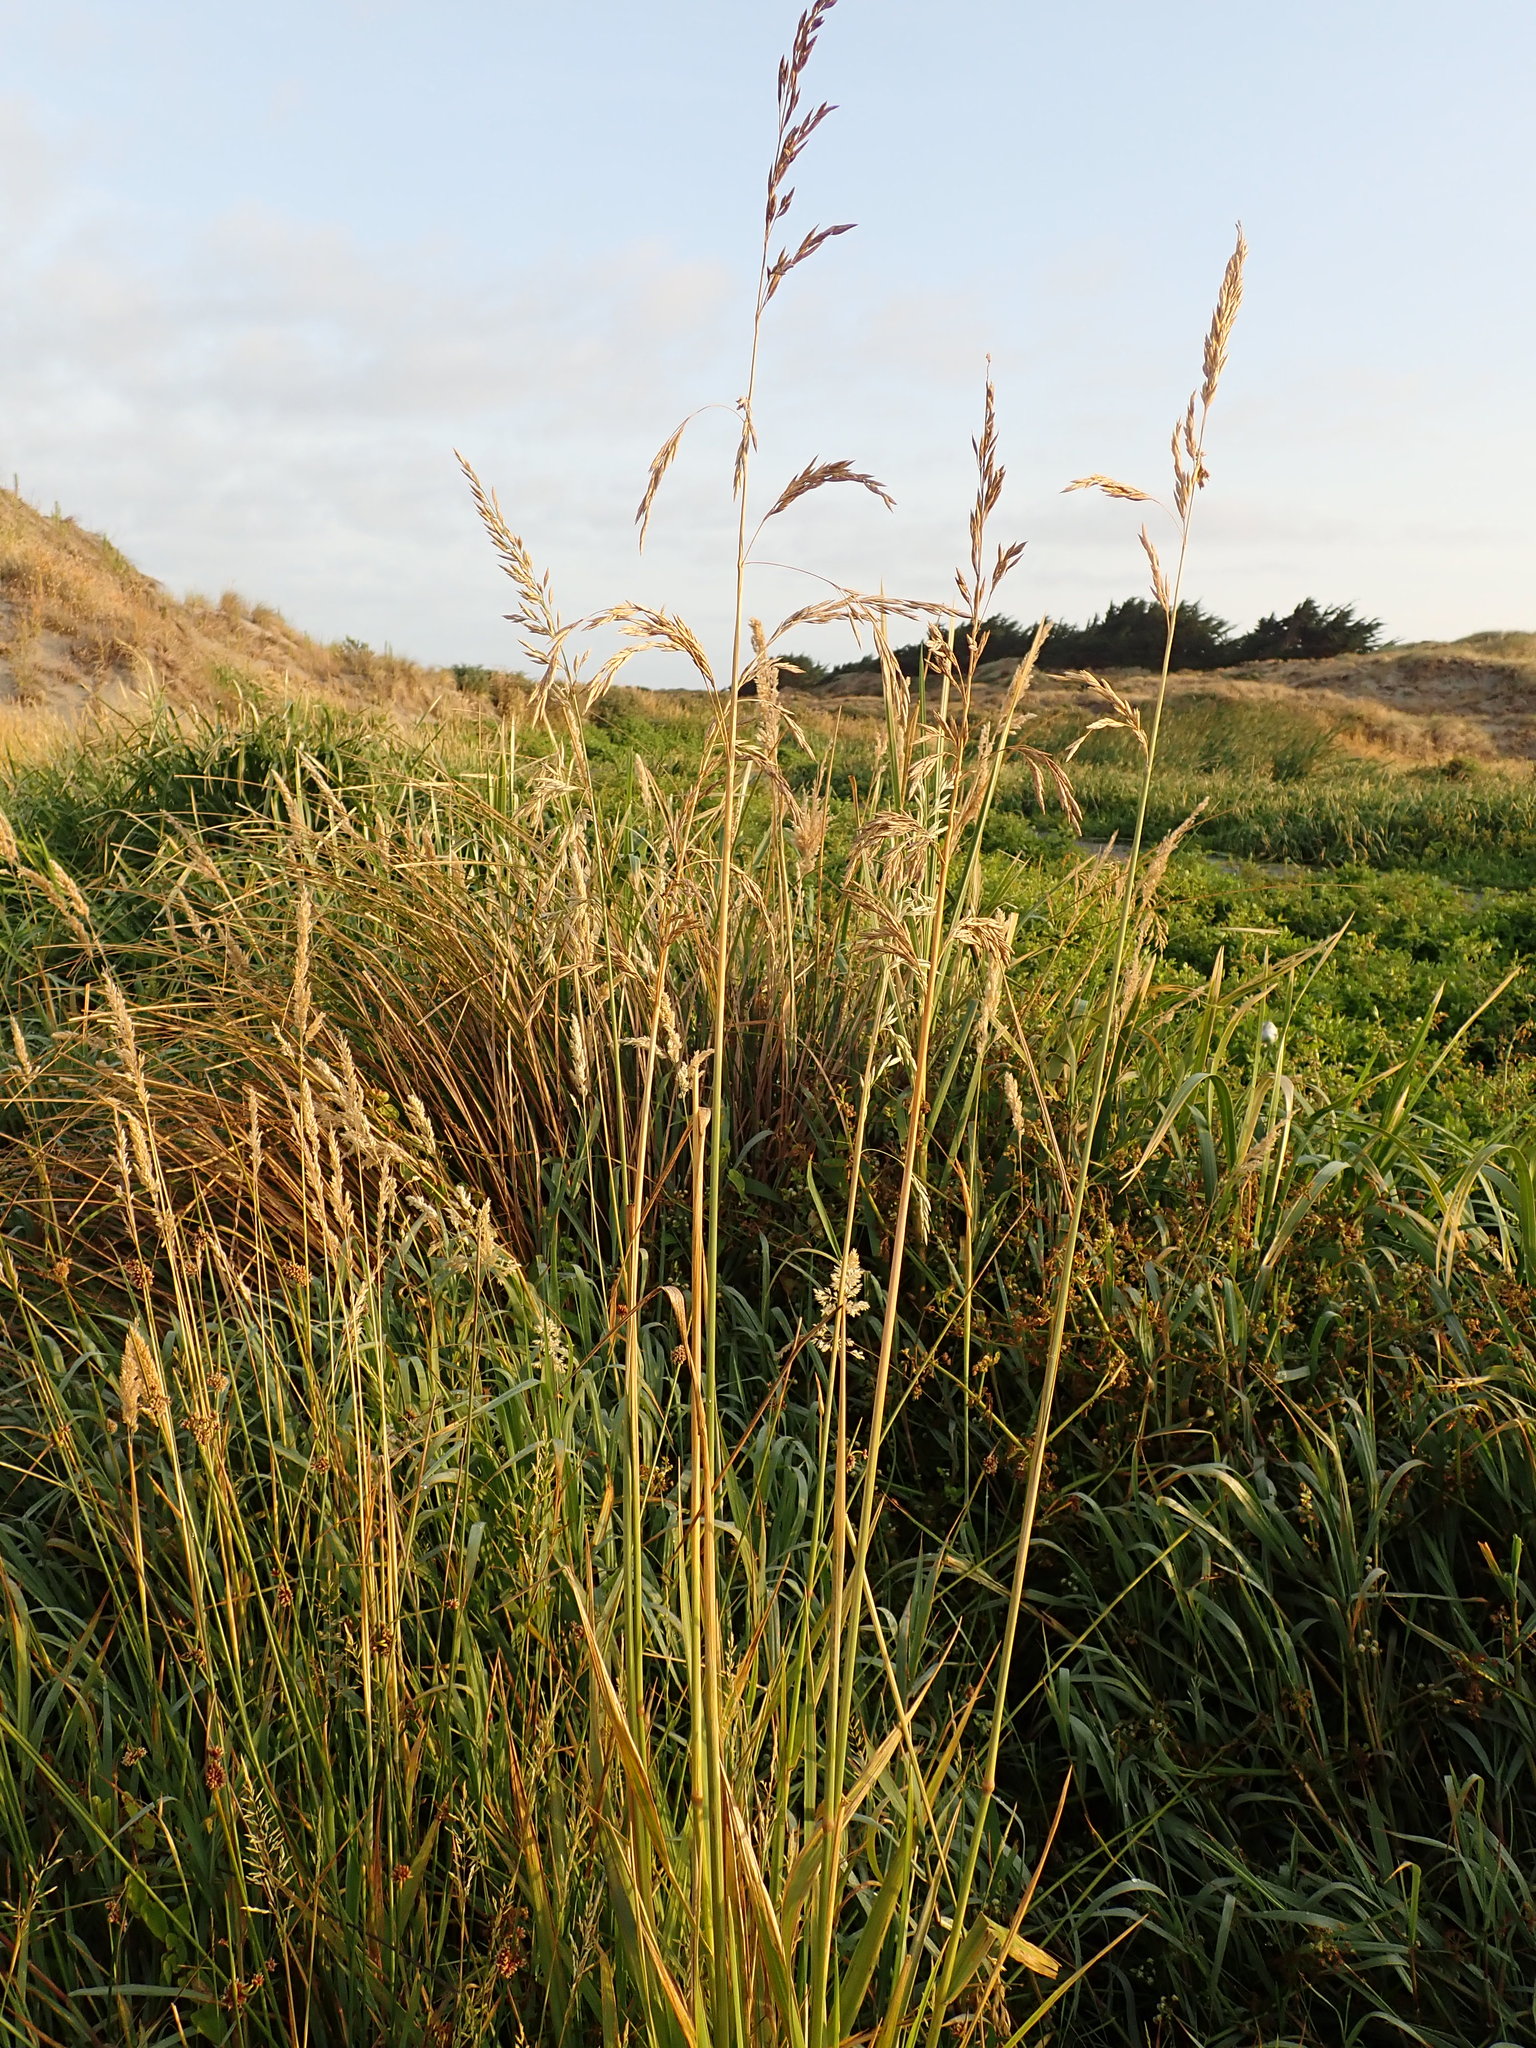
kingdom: Plantae
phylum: Tracheophyta
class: Liliopsida
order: Poales
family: Poaceae
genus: Lolium
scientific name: Lolium arundinaceum
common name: Reed fescue
